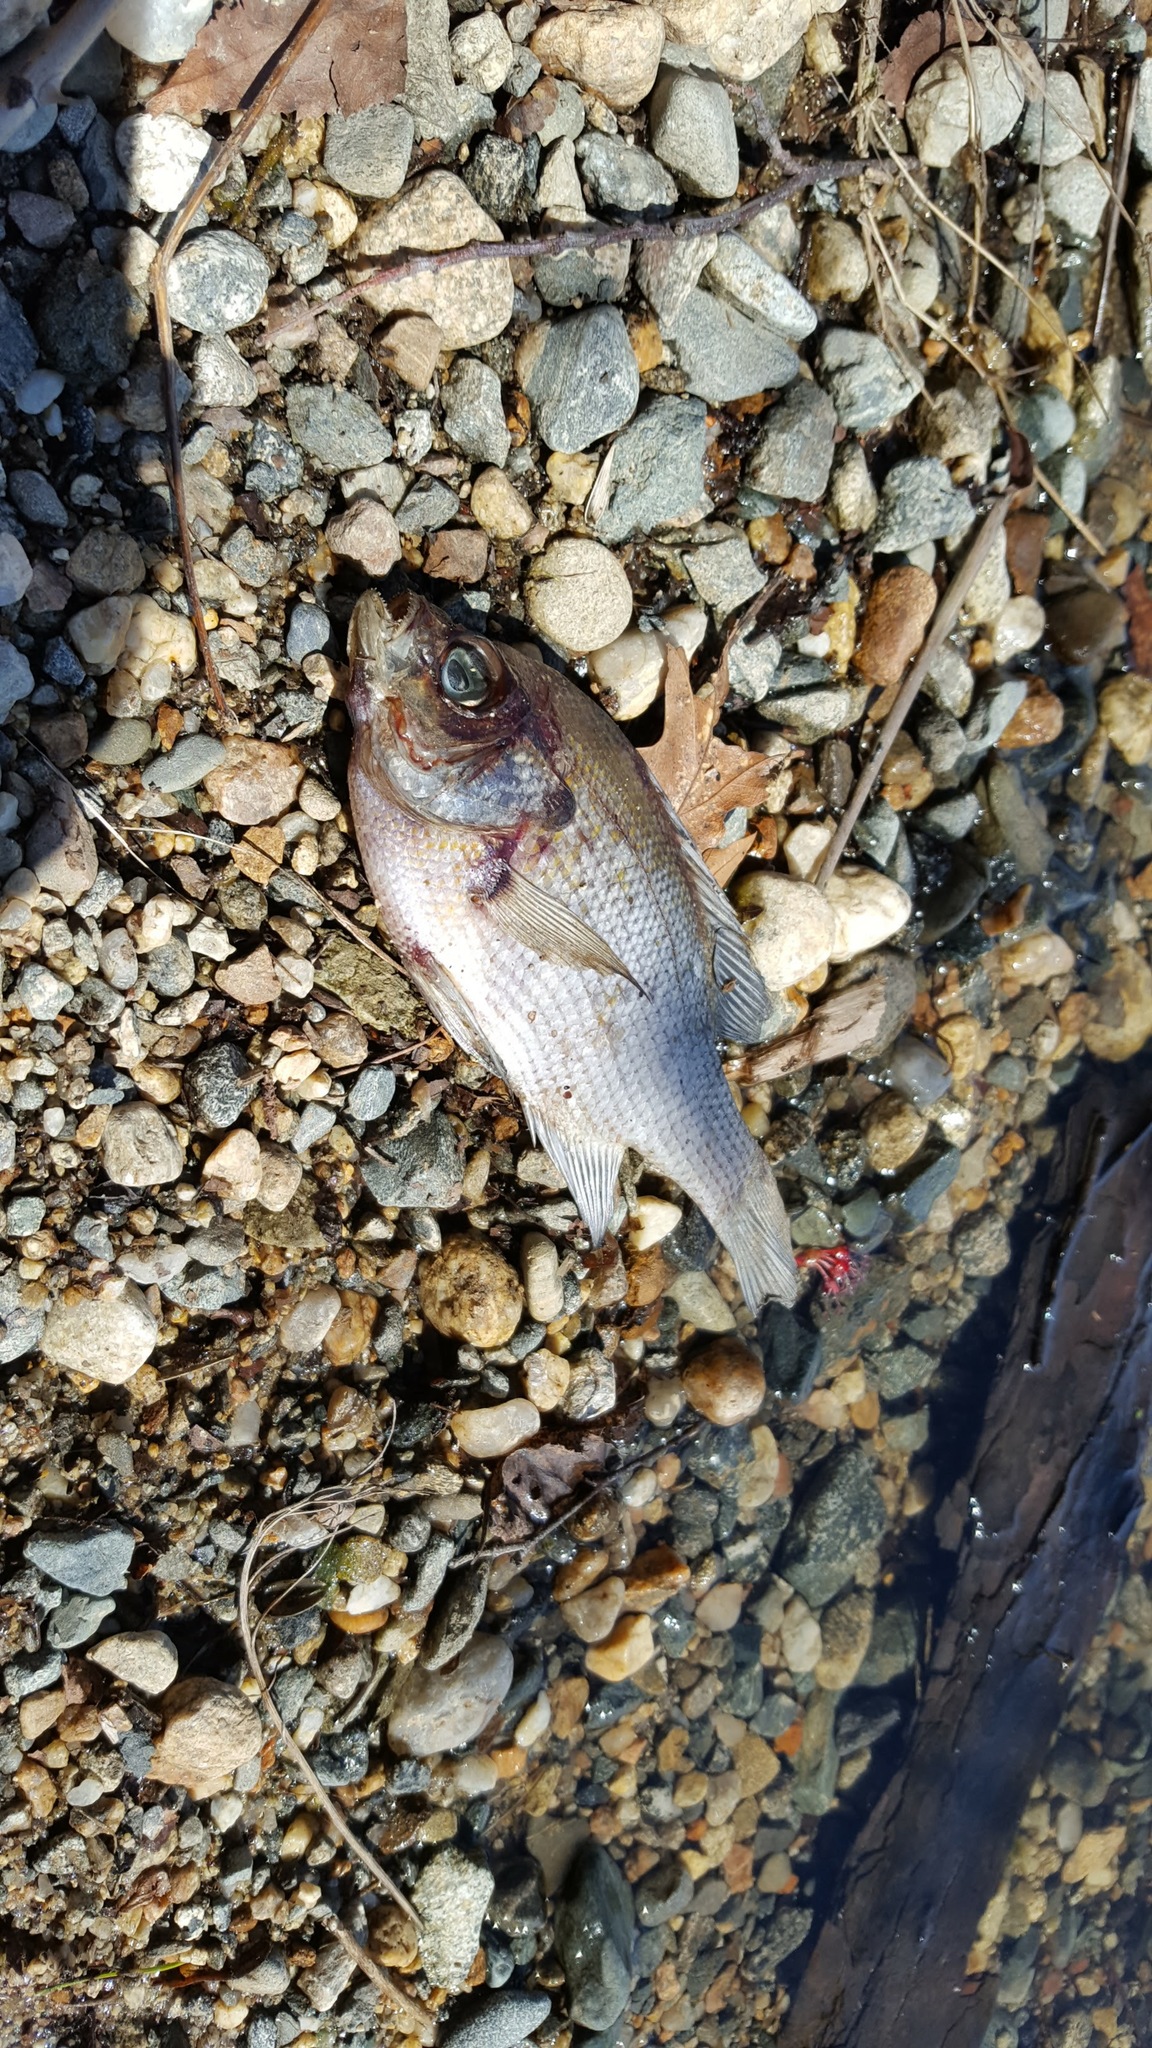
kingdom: Animalia
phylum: Chordata
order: Perciformes
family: Centrarchidae
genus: Lepomis
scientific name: Lepomis macrochirus
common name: Bluegill
